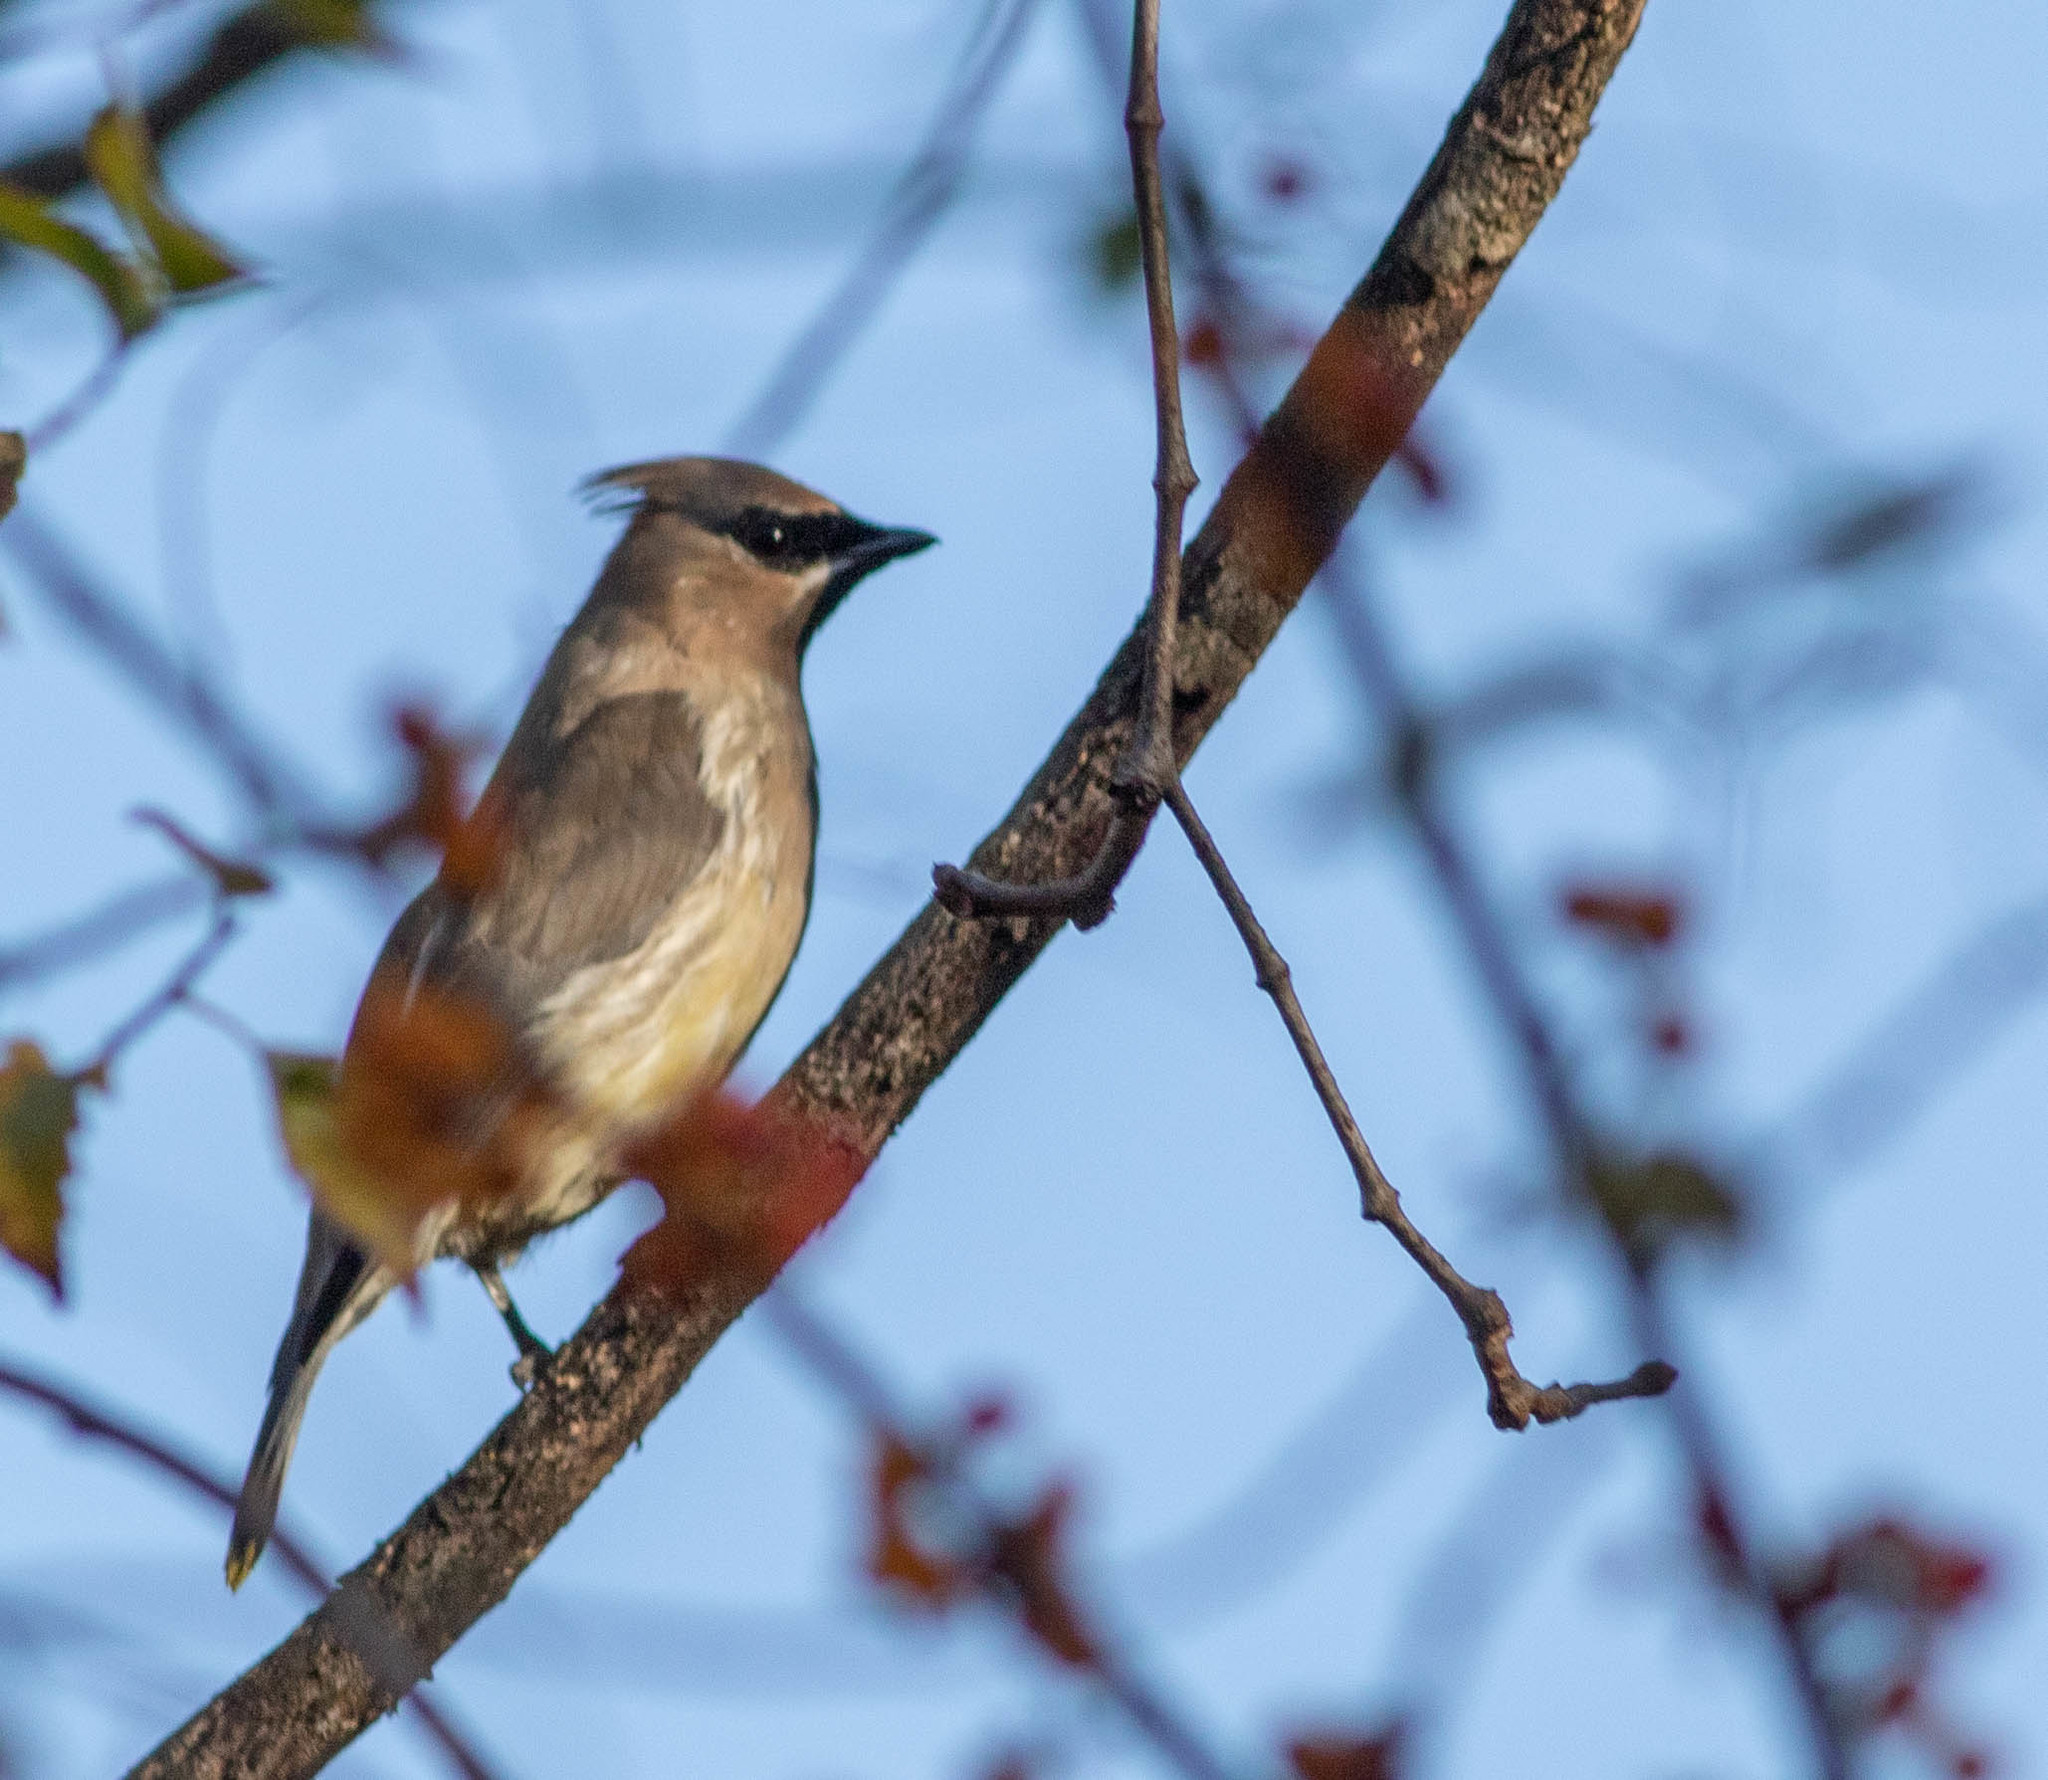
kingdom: Animalia
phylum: Chordata
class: Aves
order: Passeriformes
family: Bombycillidae
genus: Bombycilla
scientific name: Bombycilla cedrorum
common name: Cedar waxwing
